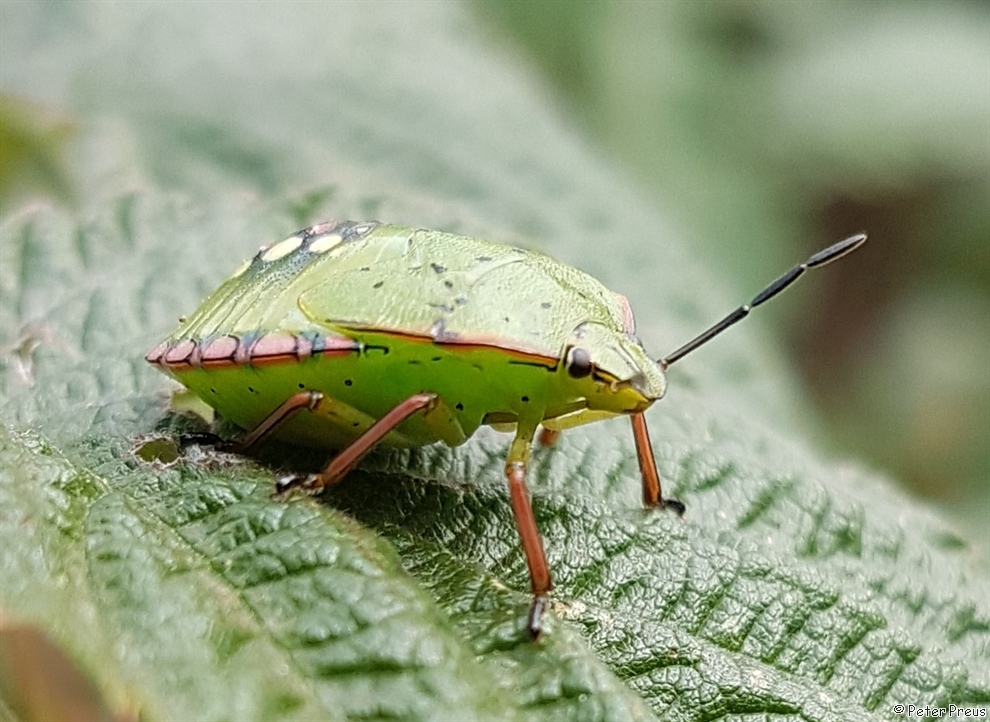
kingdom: Animalia
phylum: Arthropoda
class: Insecta
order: Hemiptera
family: Pentatomidae
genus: Nezara
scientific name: Nezara viridula
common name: Southern green stink bug
